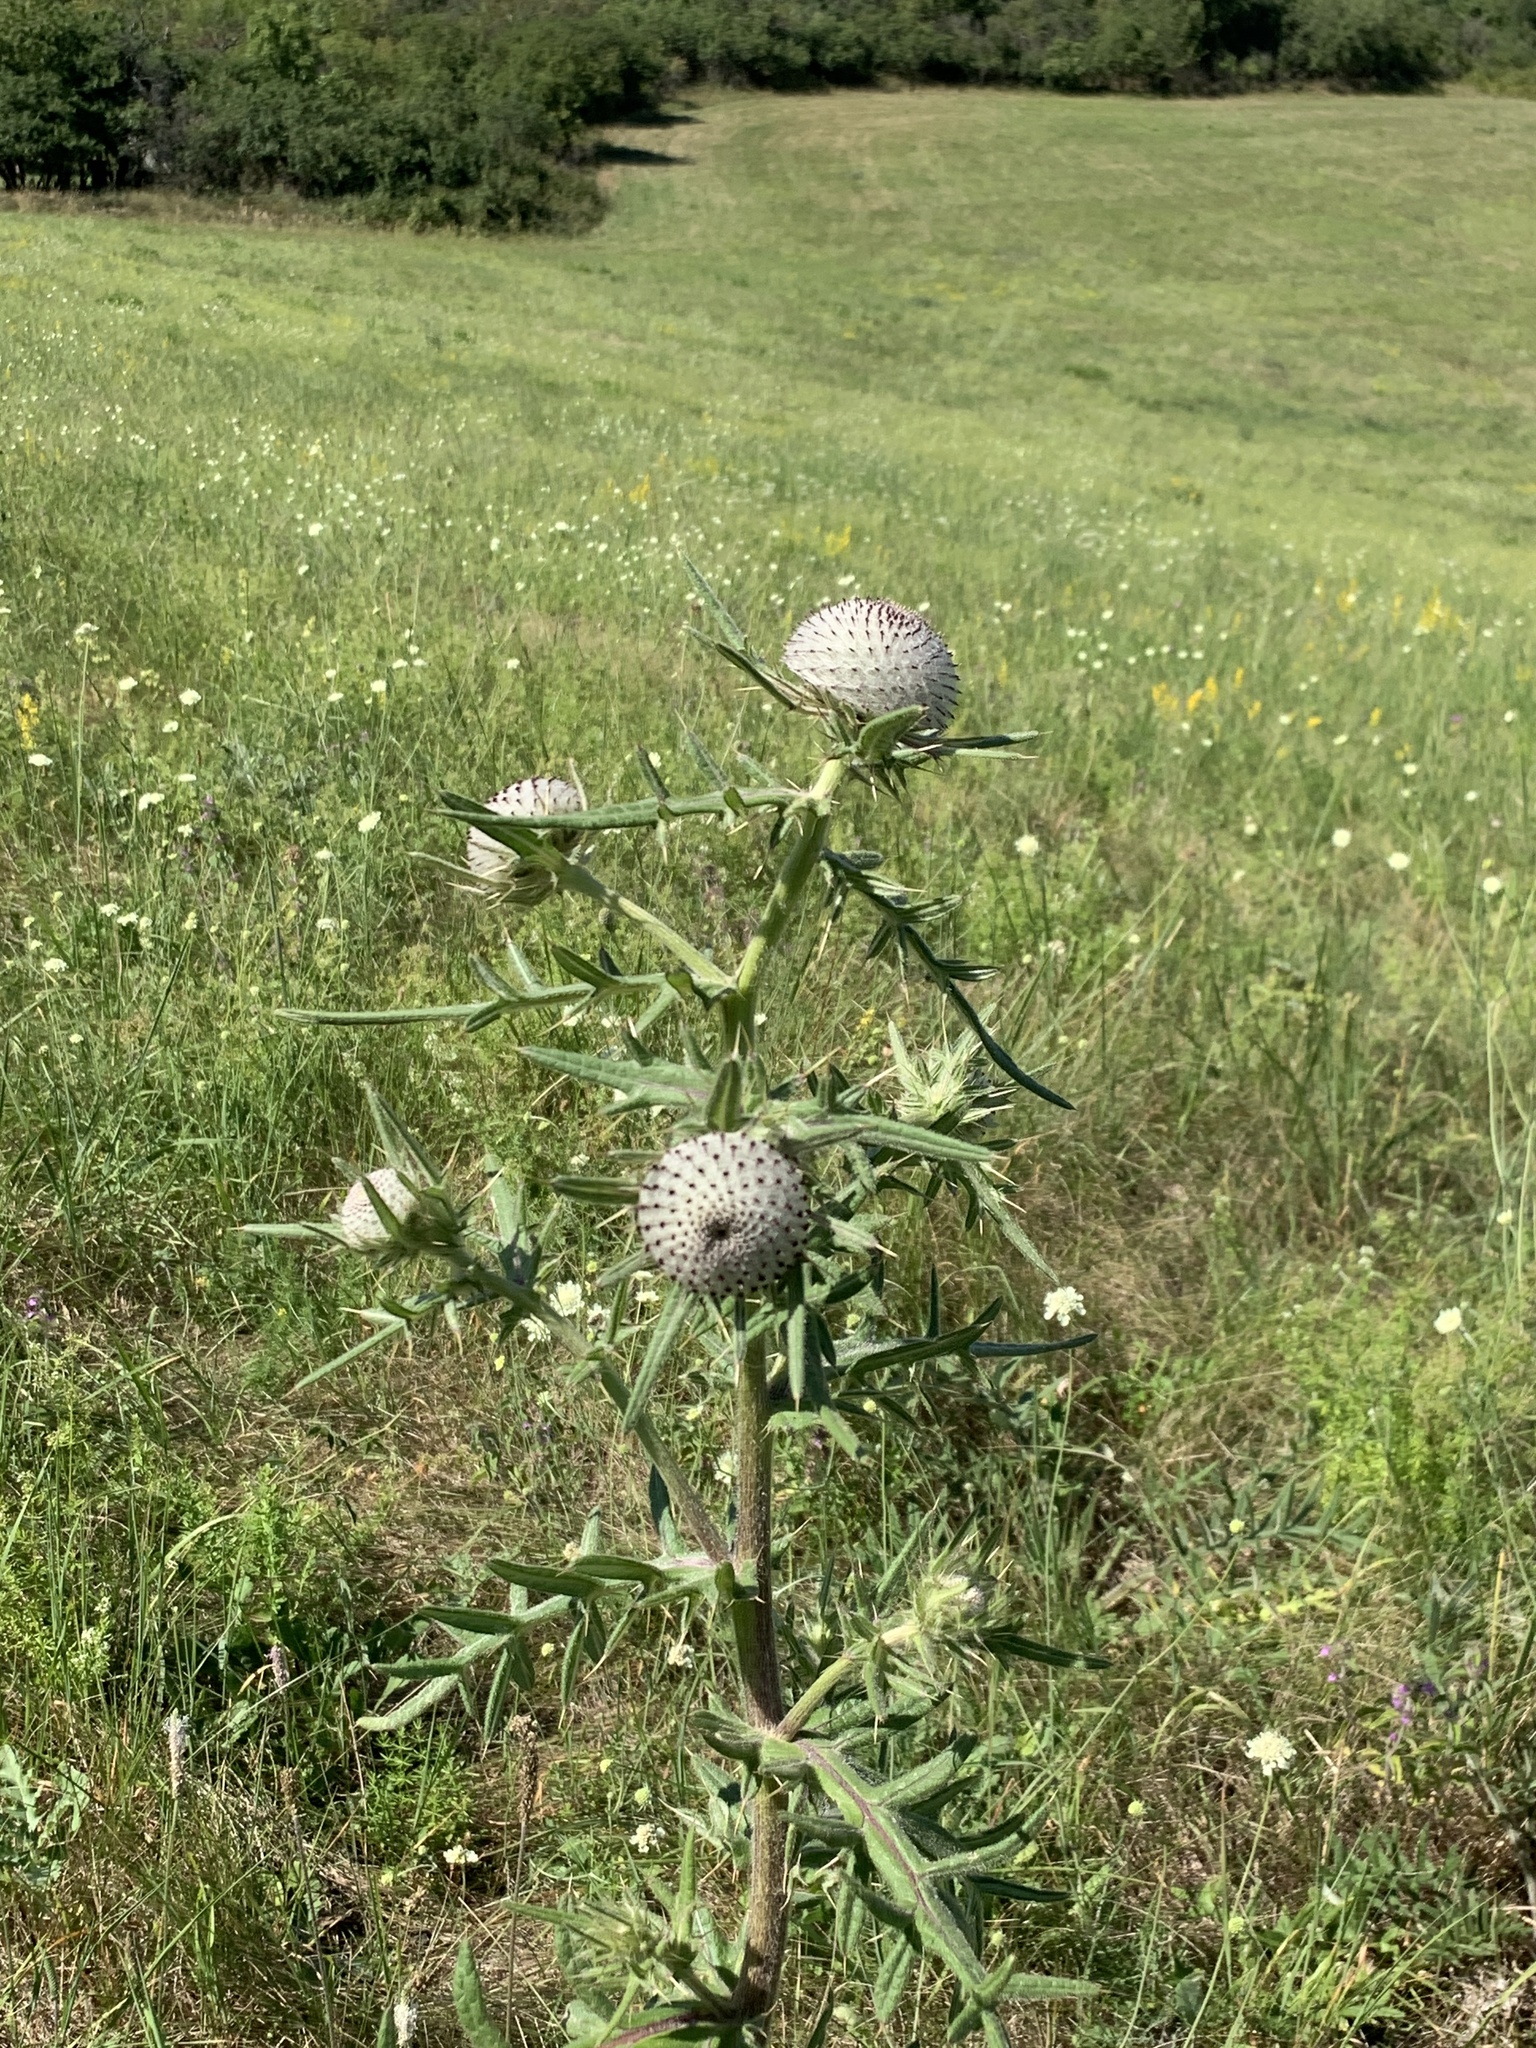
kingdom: Plantae
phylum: Tracheophyta
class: Magnoliopsida
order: Asterales
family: Asteraceae
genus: Lophiolepis
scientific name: Lophiolepis eriophora
